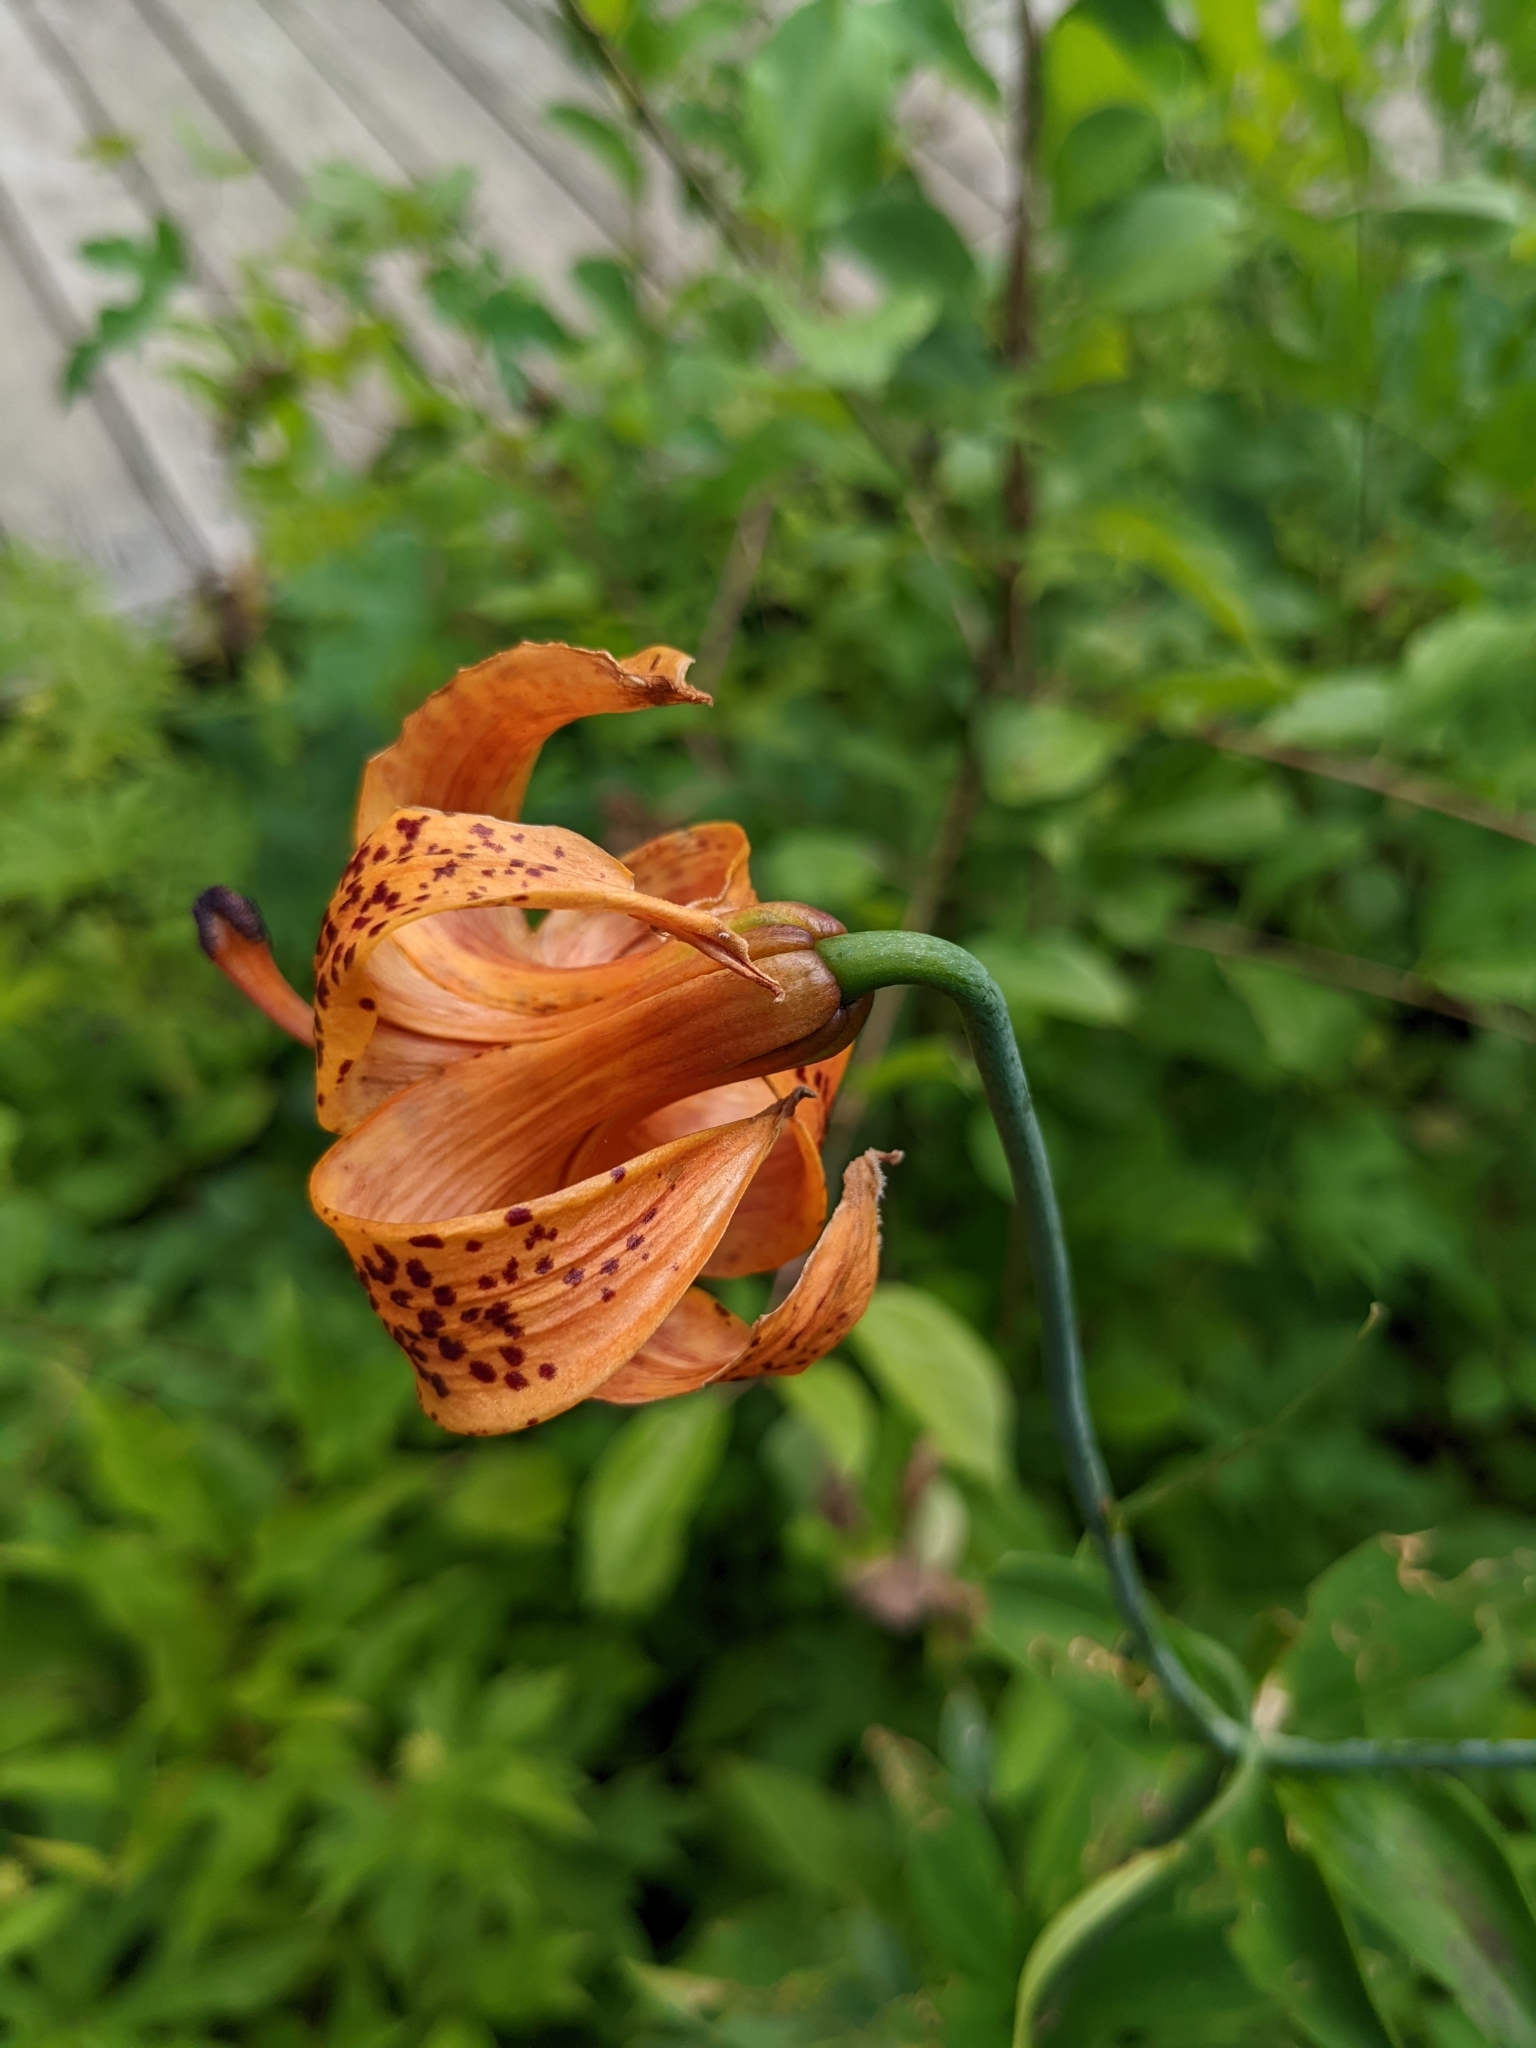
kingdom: Plantae
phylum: Tracheophyta
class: Liliopsida
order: Liliales
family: Liliaceae
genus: Lilium
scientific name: Lilium michiganense
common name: Michigan lily
